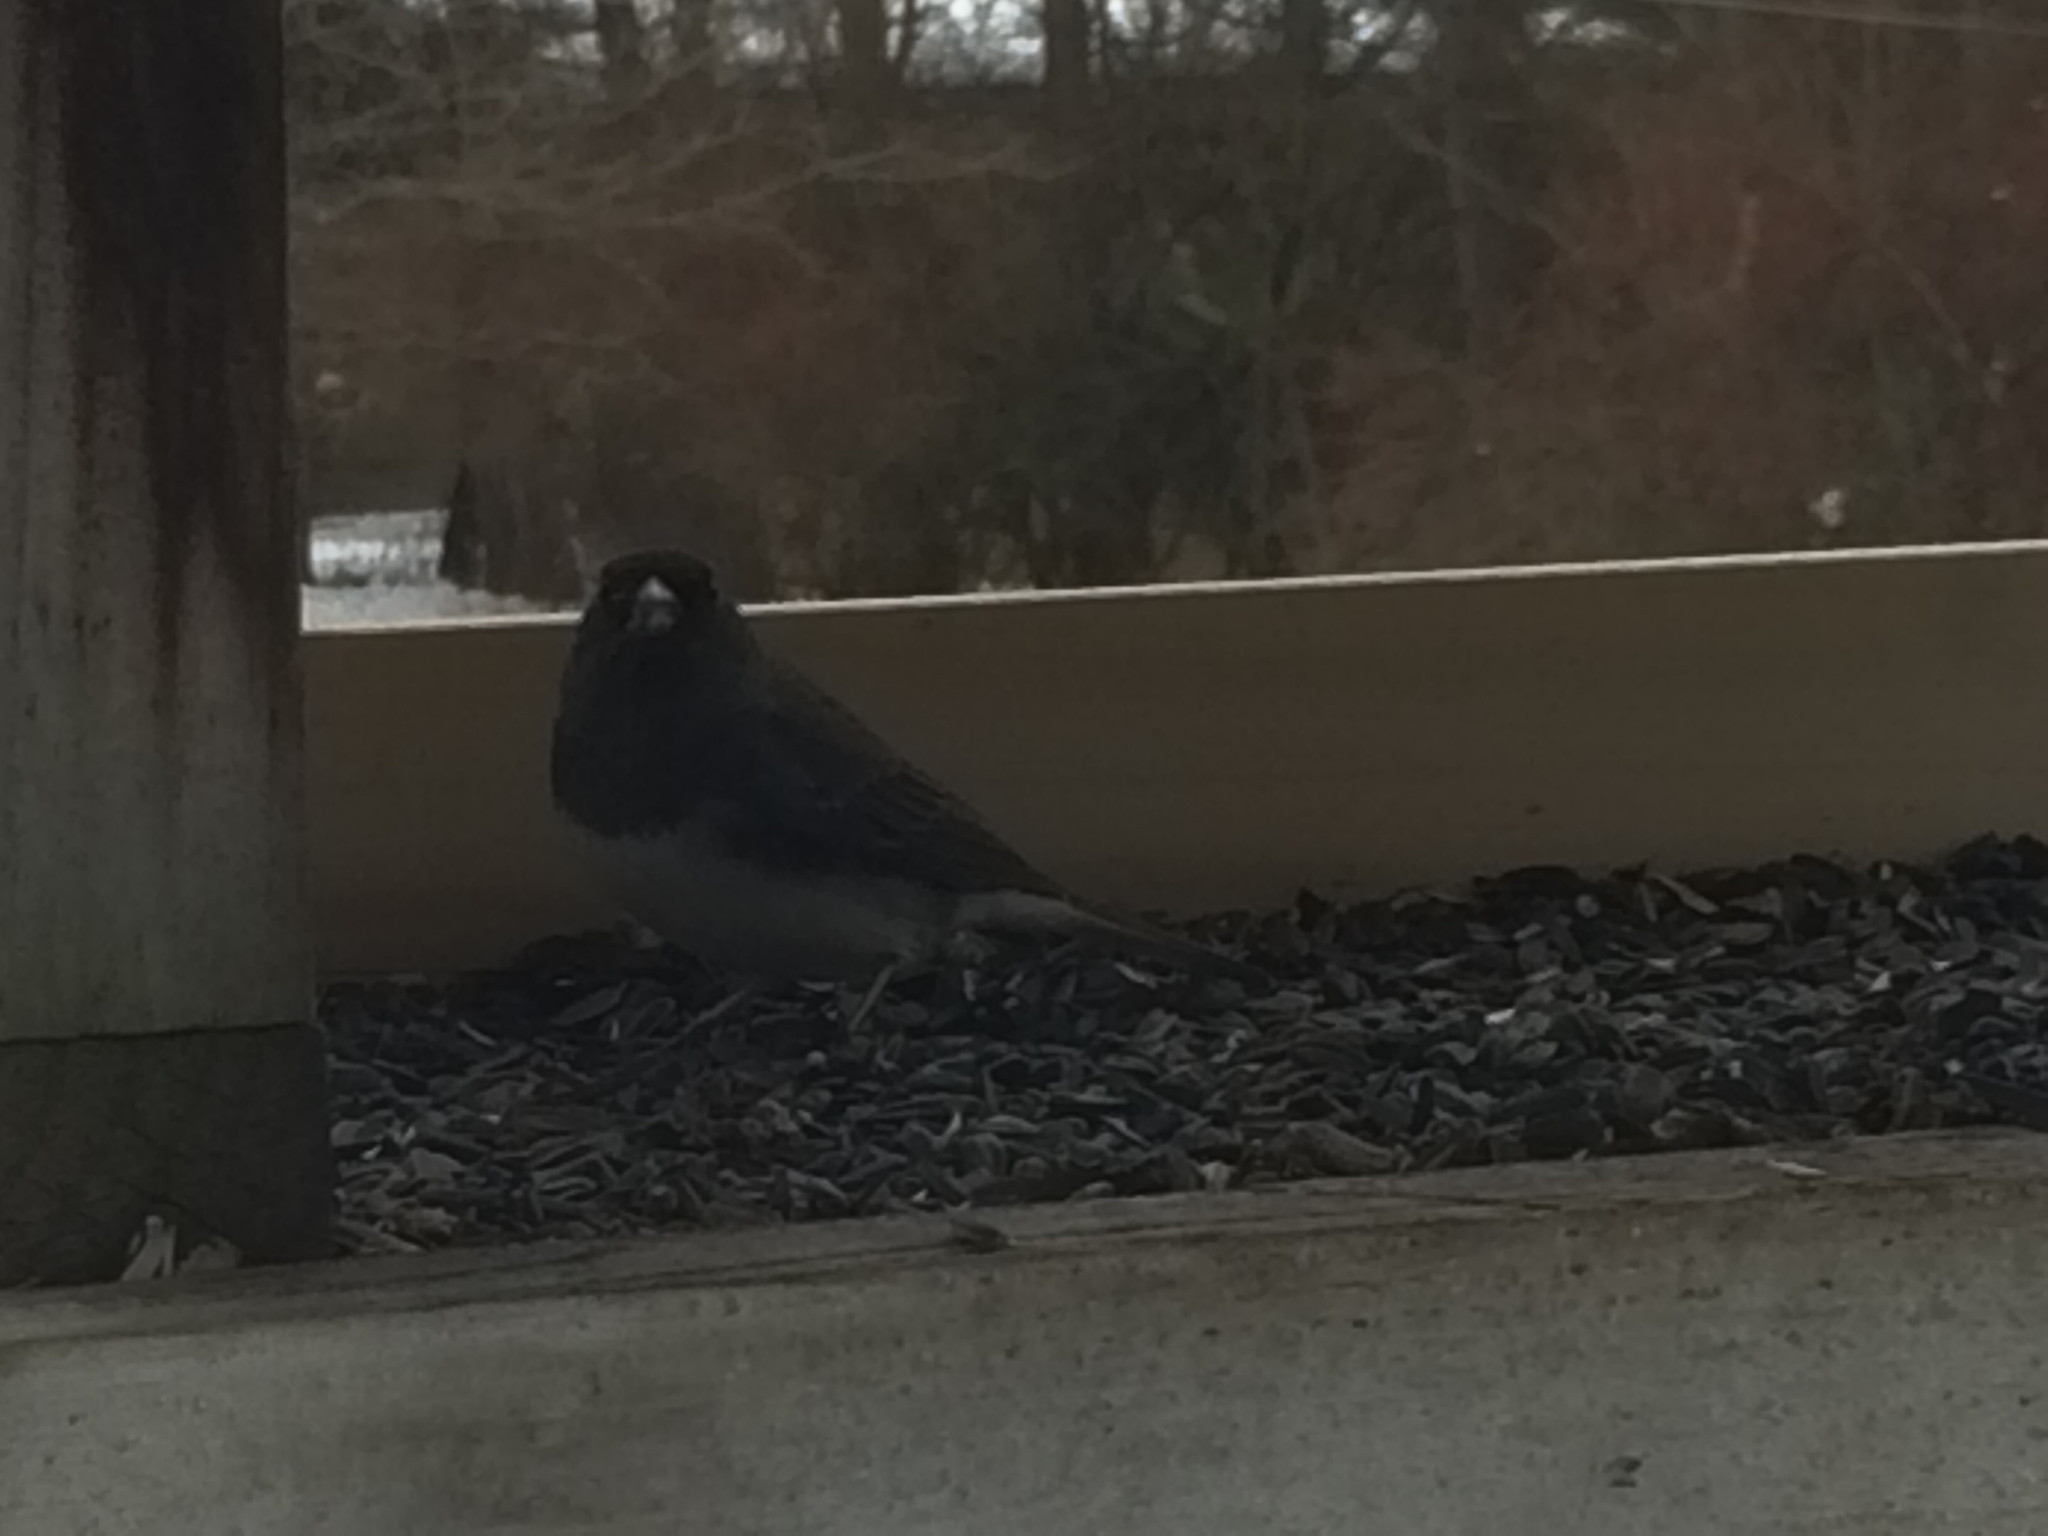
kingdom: Animalia
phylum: Chordata
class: Aves
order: Passeriformes
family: Passerellidae
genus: Junco
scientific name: Junco hyemalis
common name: Dark-eyed junco
